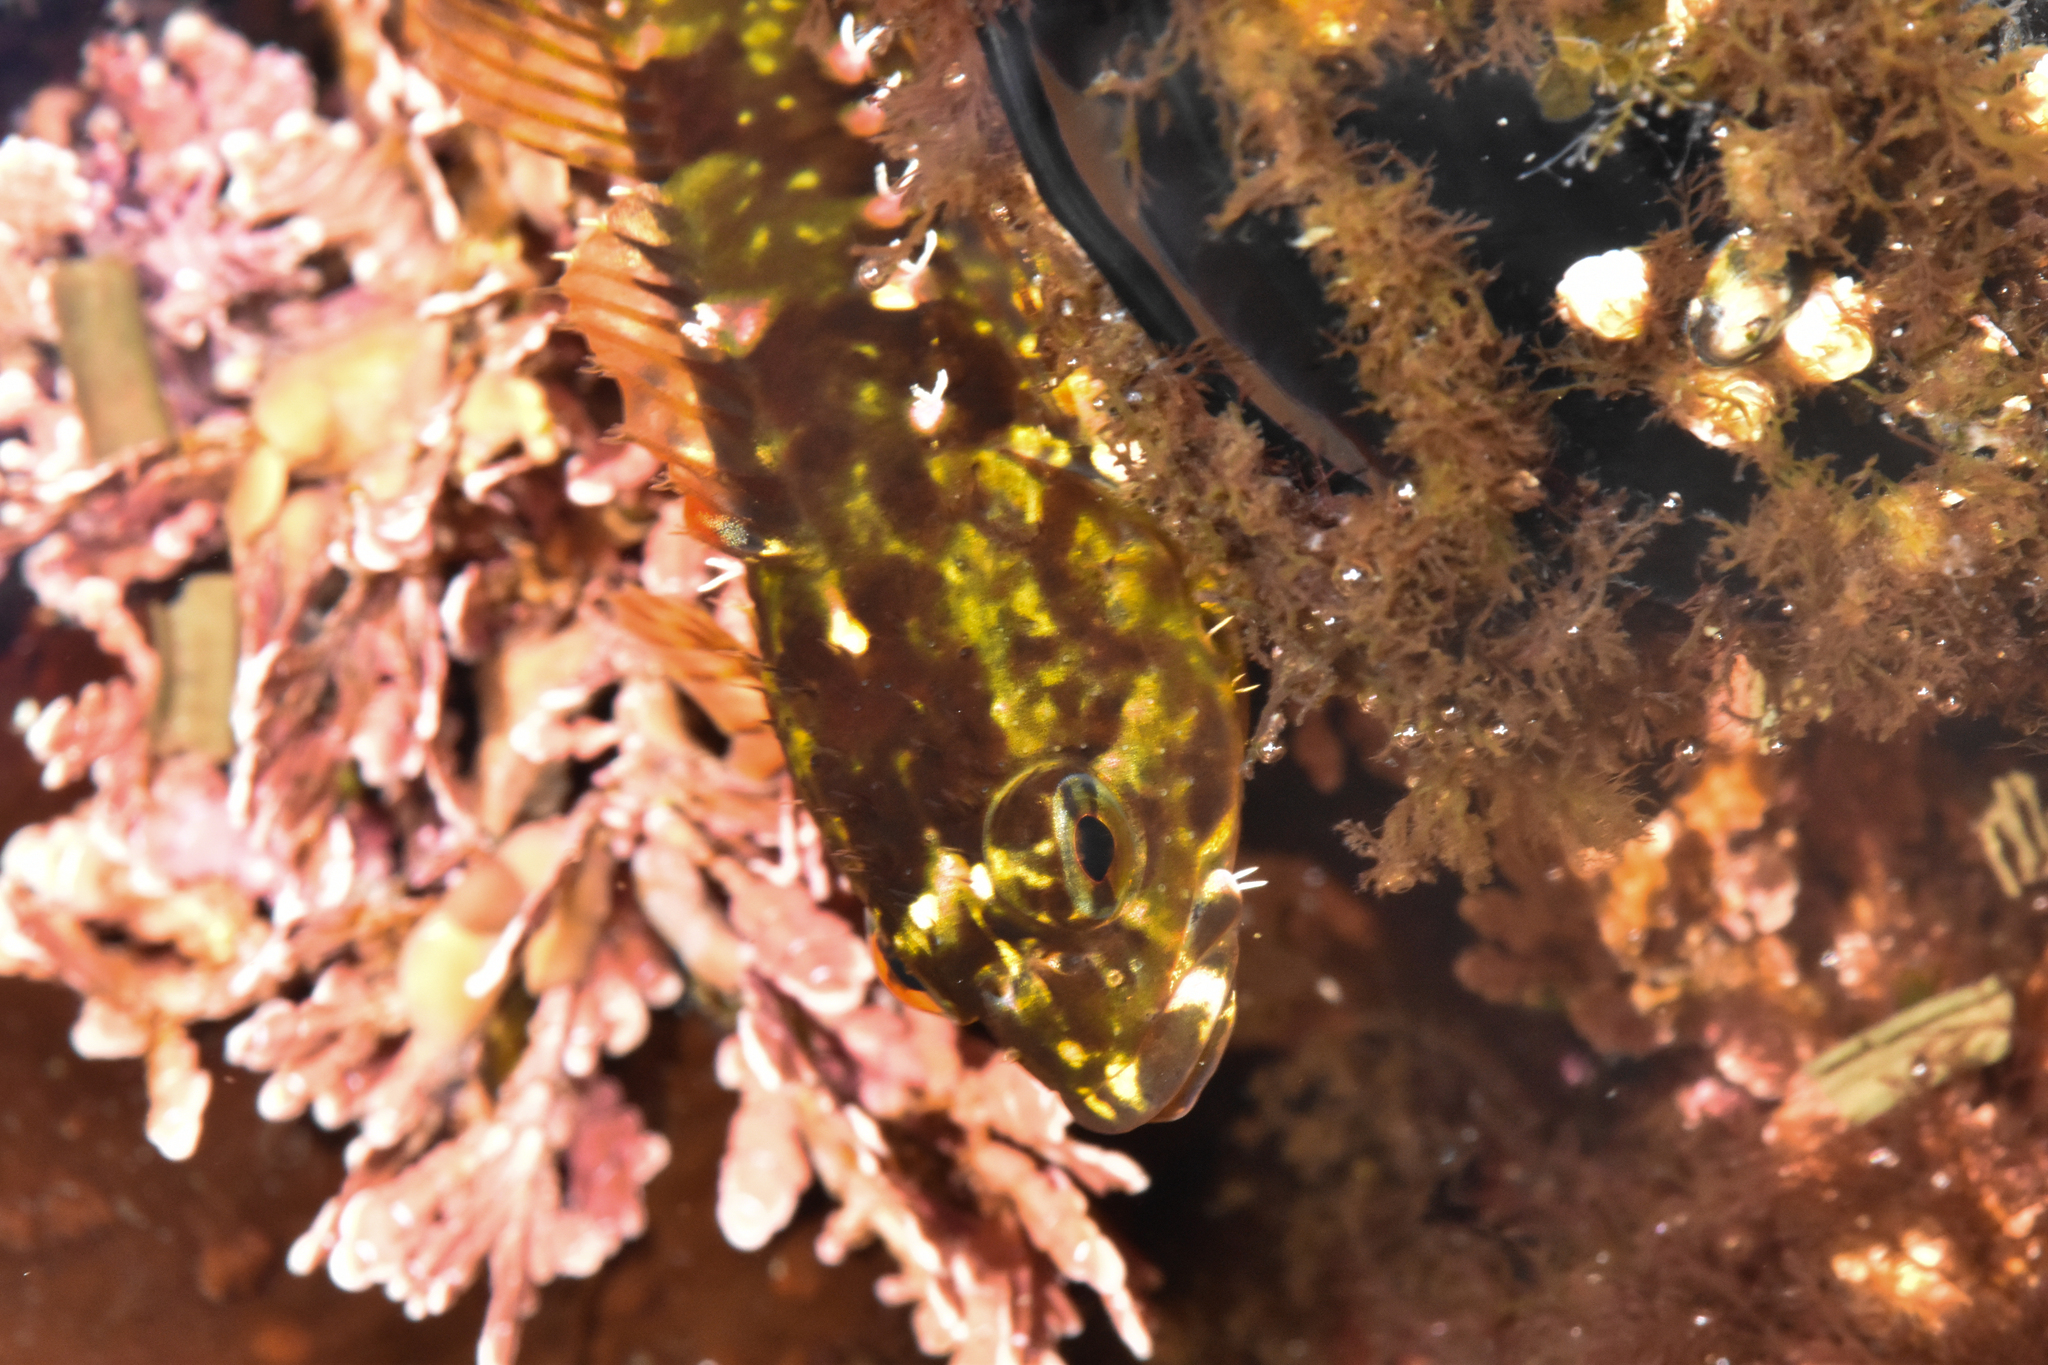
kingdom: Animalia
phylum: Chordata
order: Scorpaeniformes
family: Cottidae
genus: Oligocottus
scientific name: Oligocottus maculosus
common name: Tidepool sculpin
